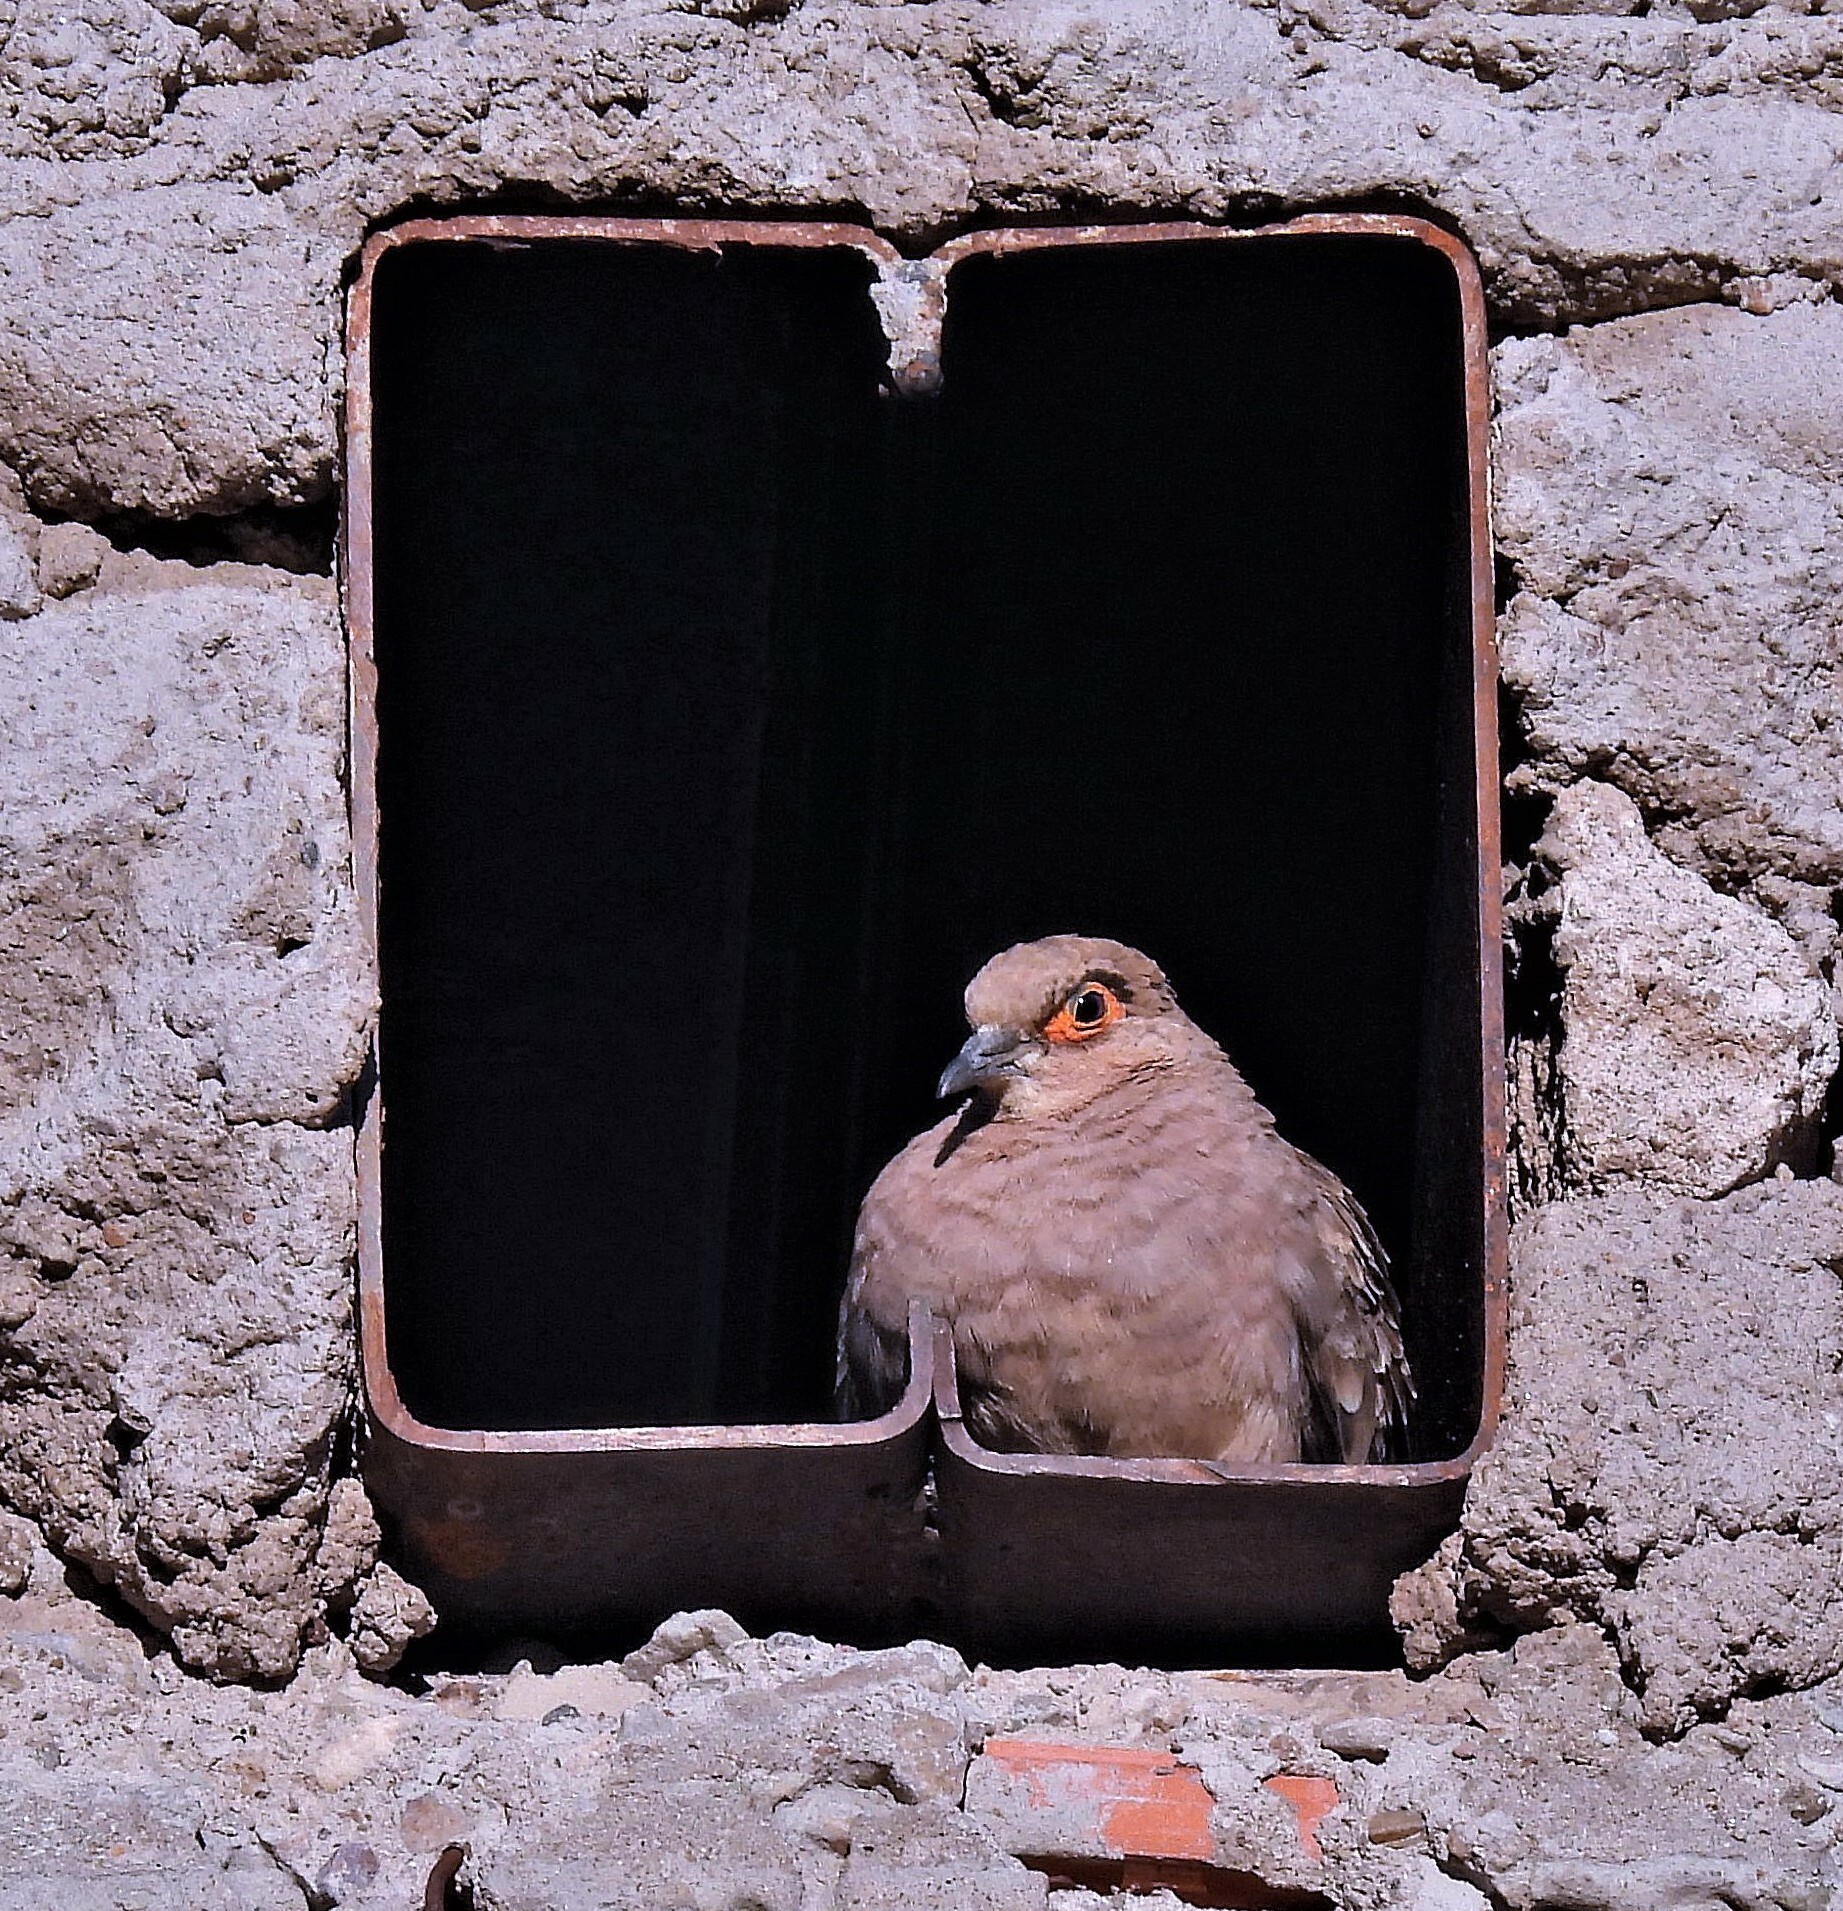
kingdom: Animalia
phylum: Chordata
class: Aves
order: Columbiformes
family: Columbidae
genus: Metriopelia
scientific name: Metriopelia ceciliae
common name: Bare-faced ground dove
